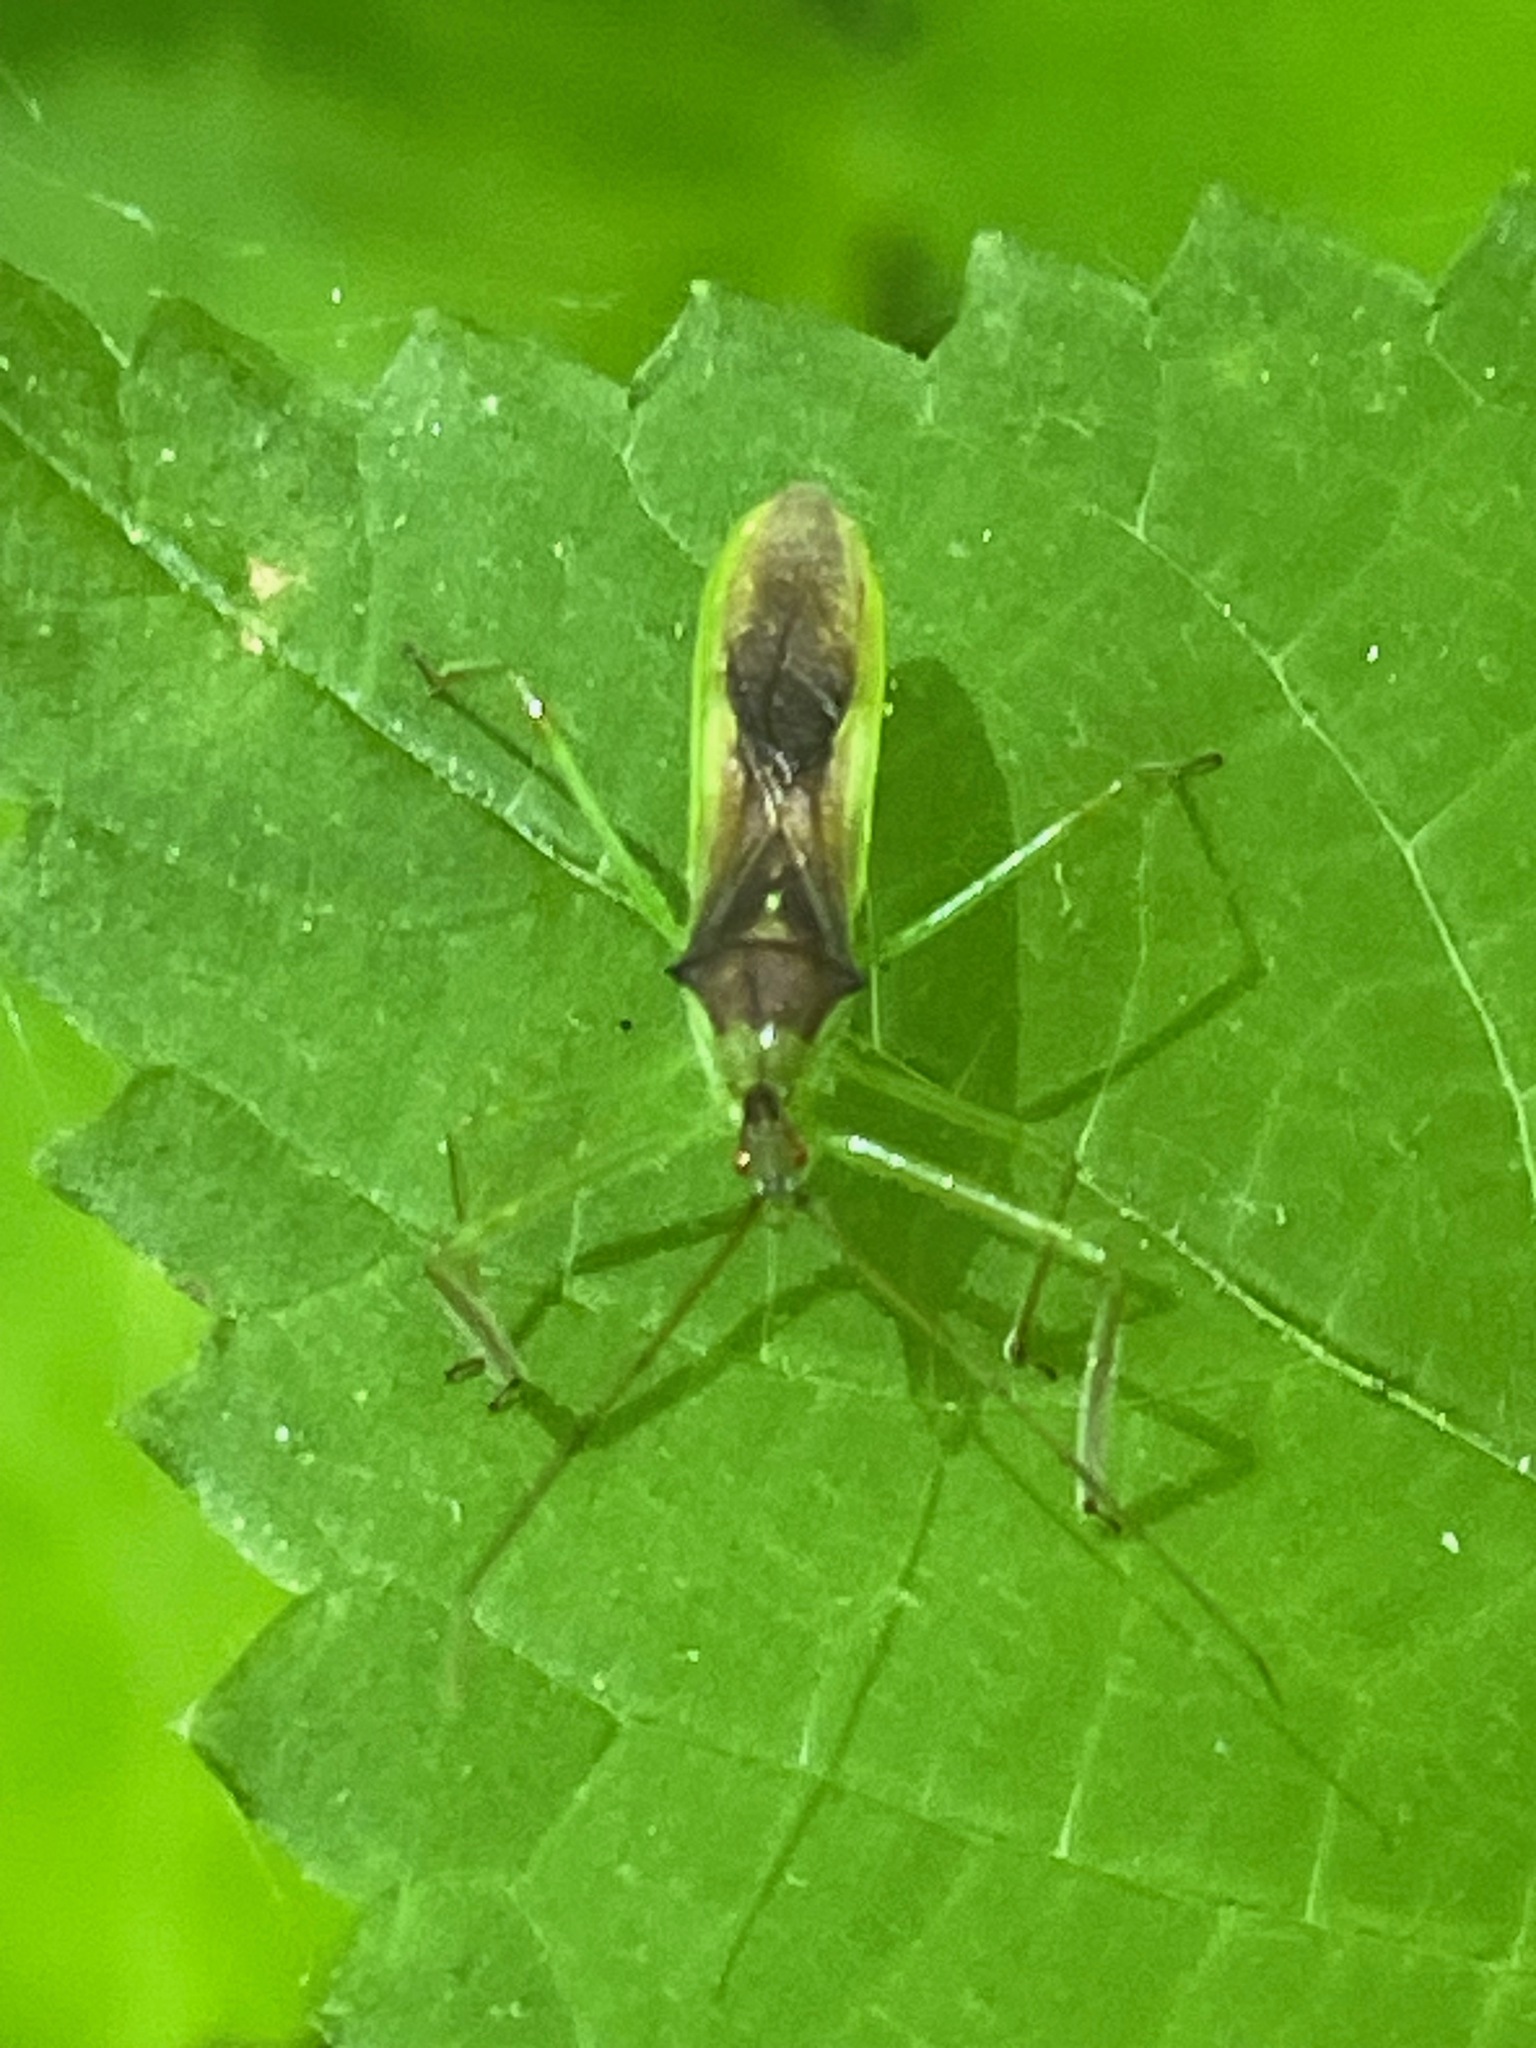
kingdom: Animalia
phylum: Arthropoda
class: Insecta
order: Hemiptera
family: Reduviidae
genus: Zelus
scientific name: Zelus luridus
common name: Pale green assassin bug
